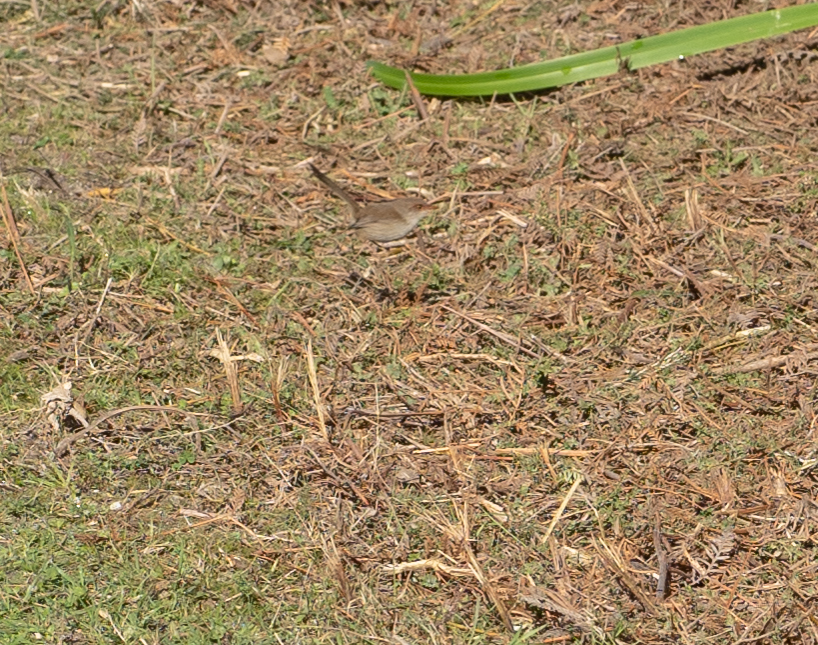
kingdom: Animalia
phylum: Chordata
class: Aves
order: Passeriformes
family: Maluridae
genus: Malurus
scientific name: Malurus cyaneus
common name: Superb fairywren
